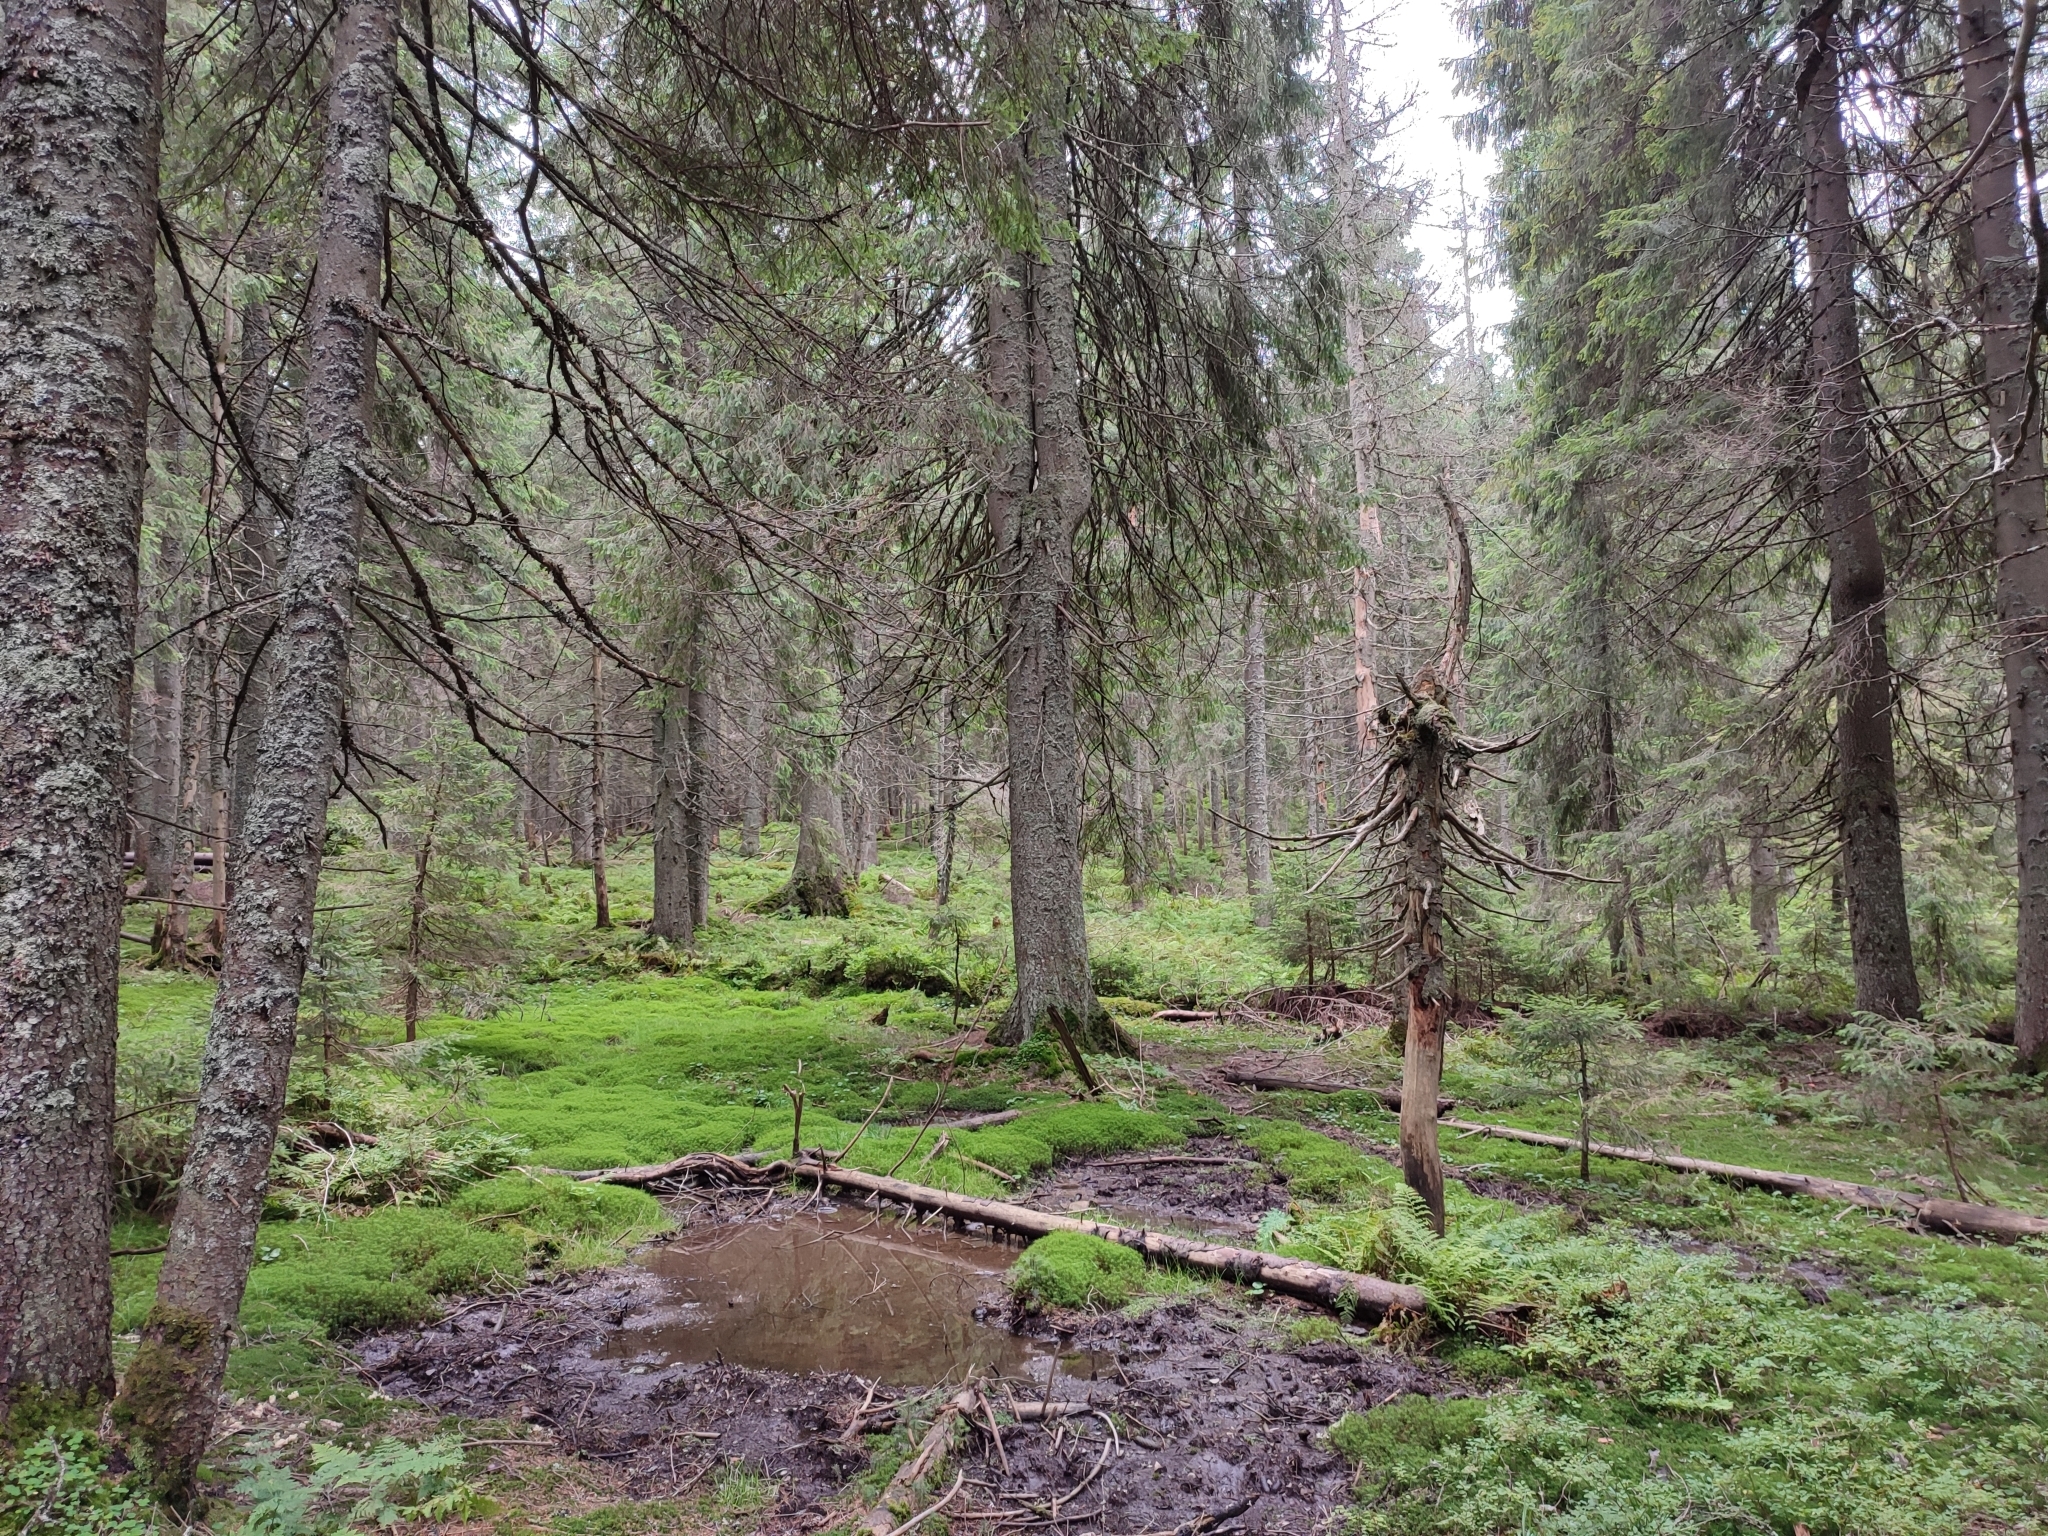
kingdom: Plantae
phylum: Tracheophyta
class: Pinopsida
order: Pinales
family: Pinaceae
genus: Picea
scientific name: Picea abies
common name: Norway spruce
